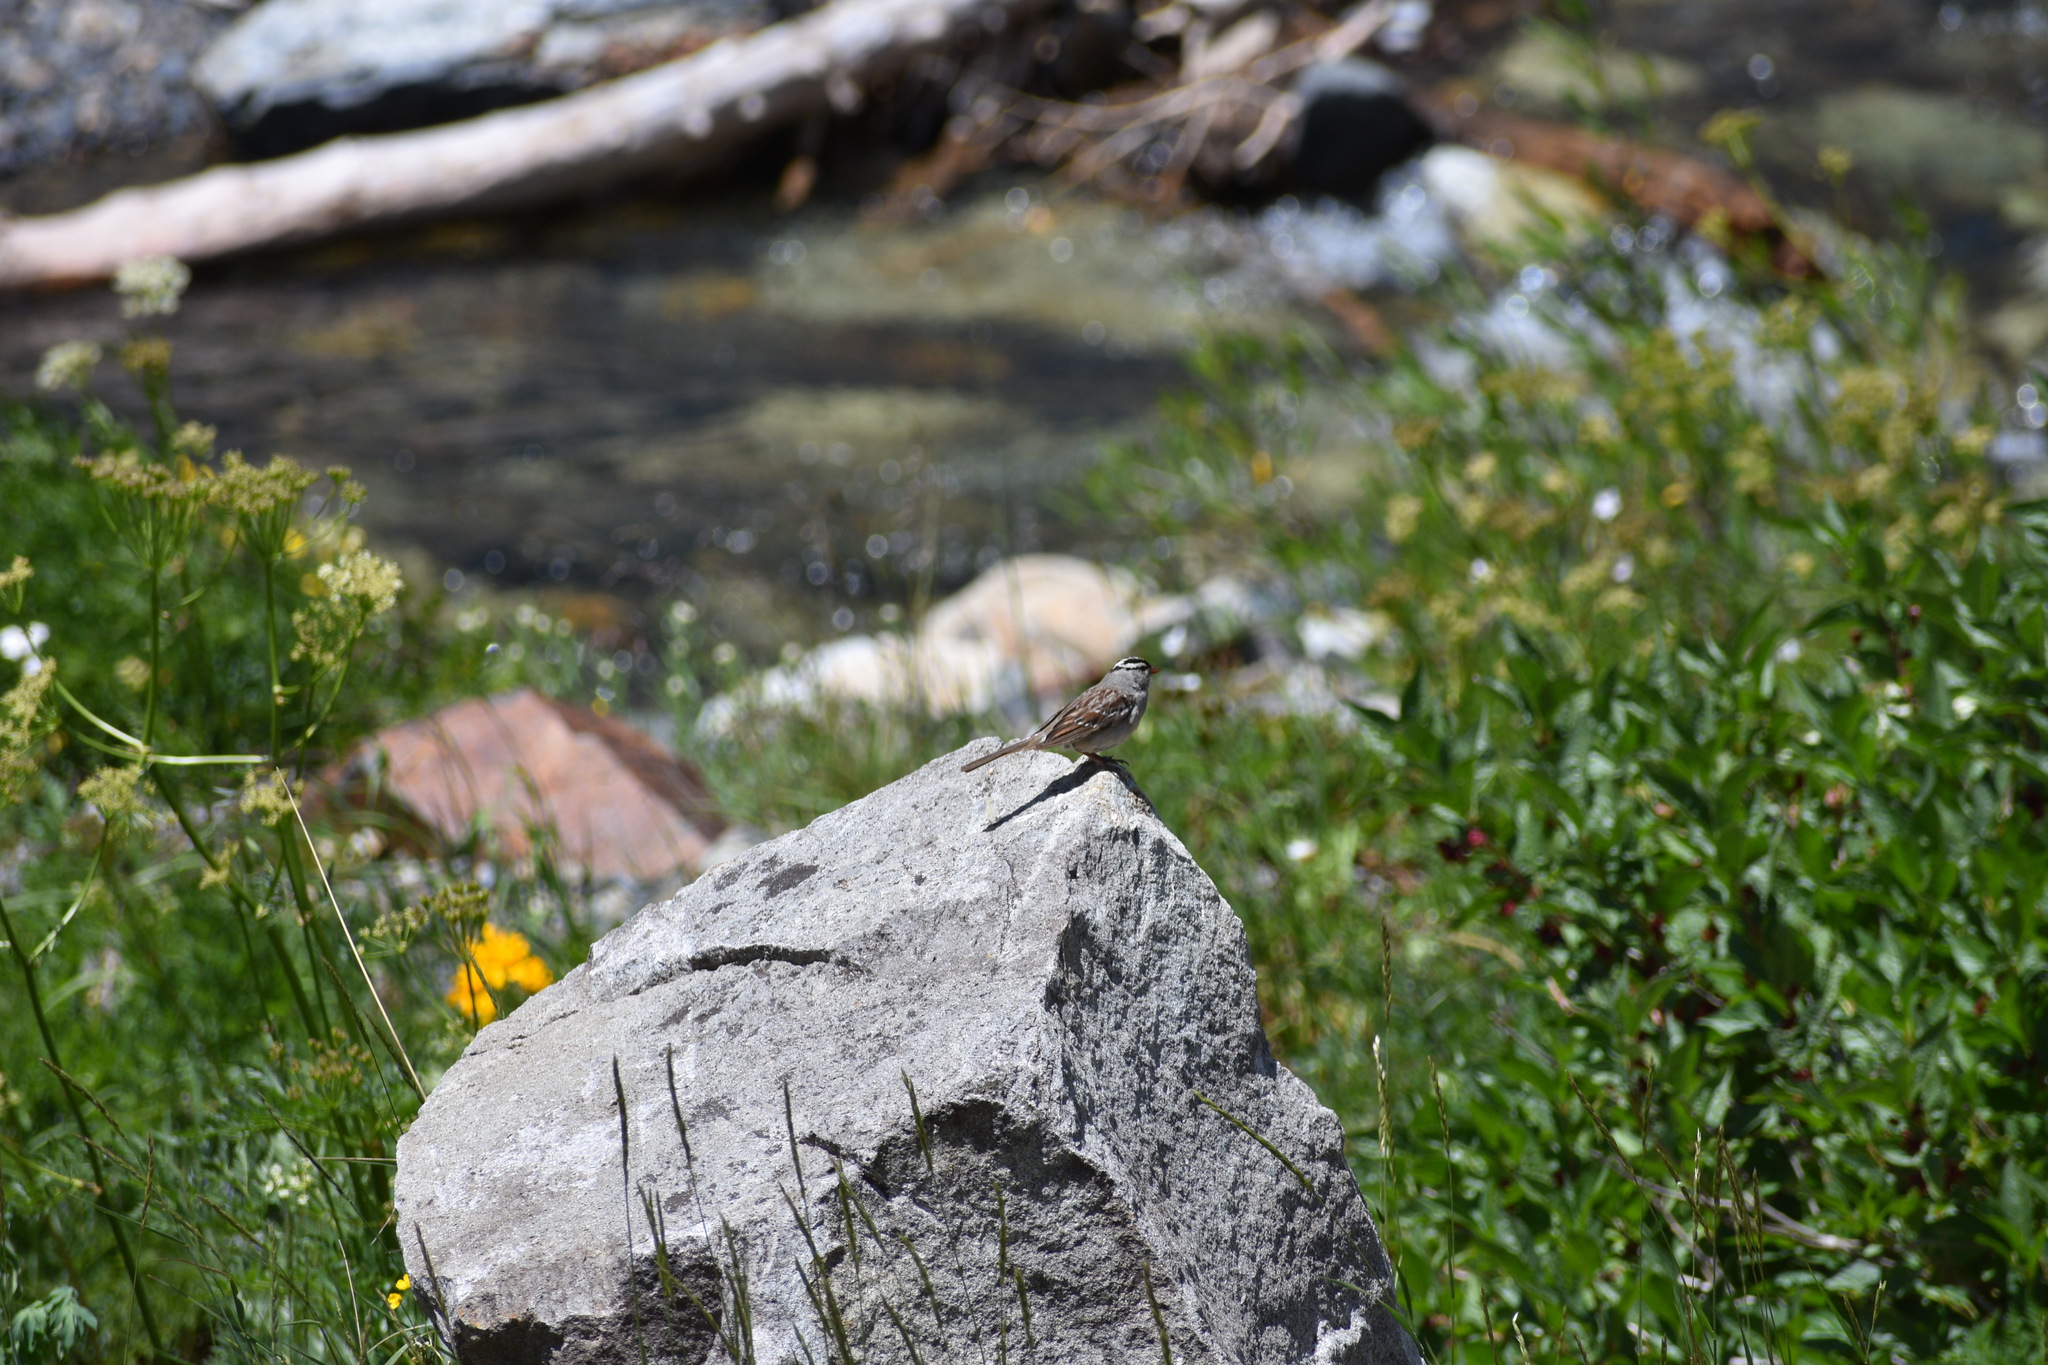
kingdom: Animalia
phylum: Chordata
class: Aves
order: Passeriformes
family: Passerellidae
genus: Zonotrichia
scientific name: Zonotrichia leucophrys
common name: White-crowned sparrow
